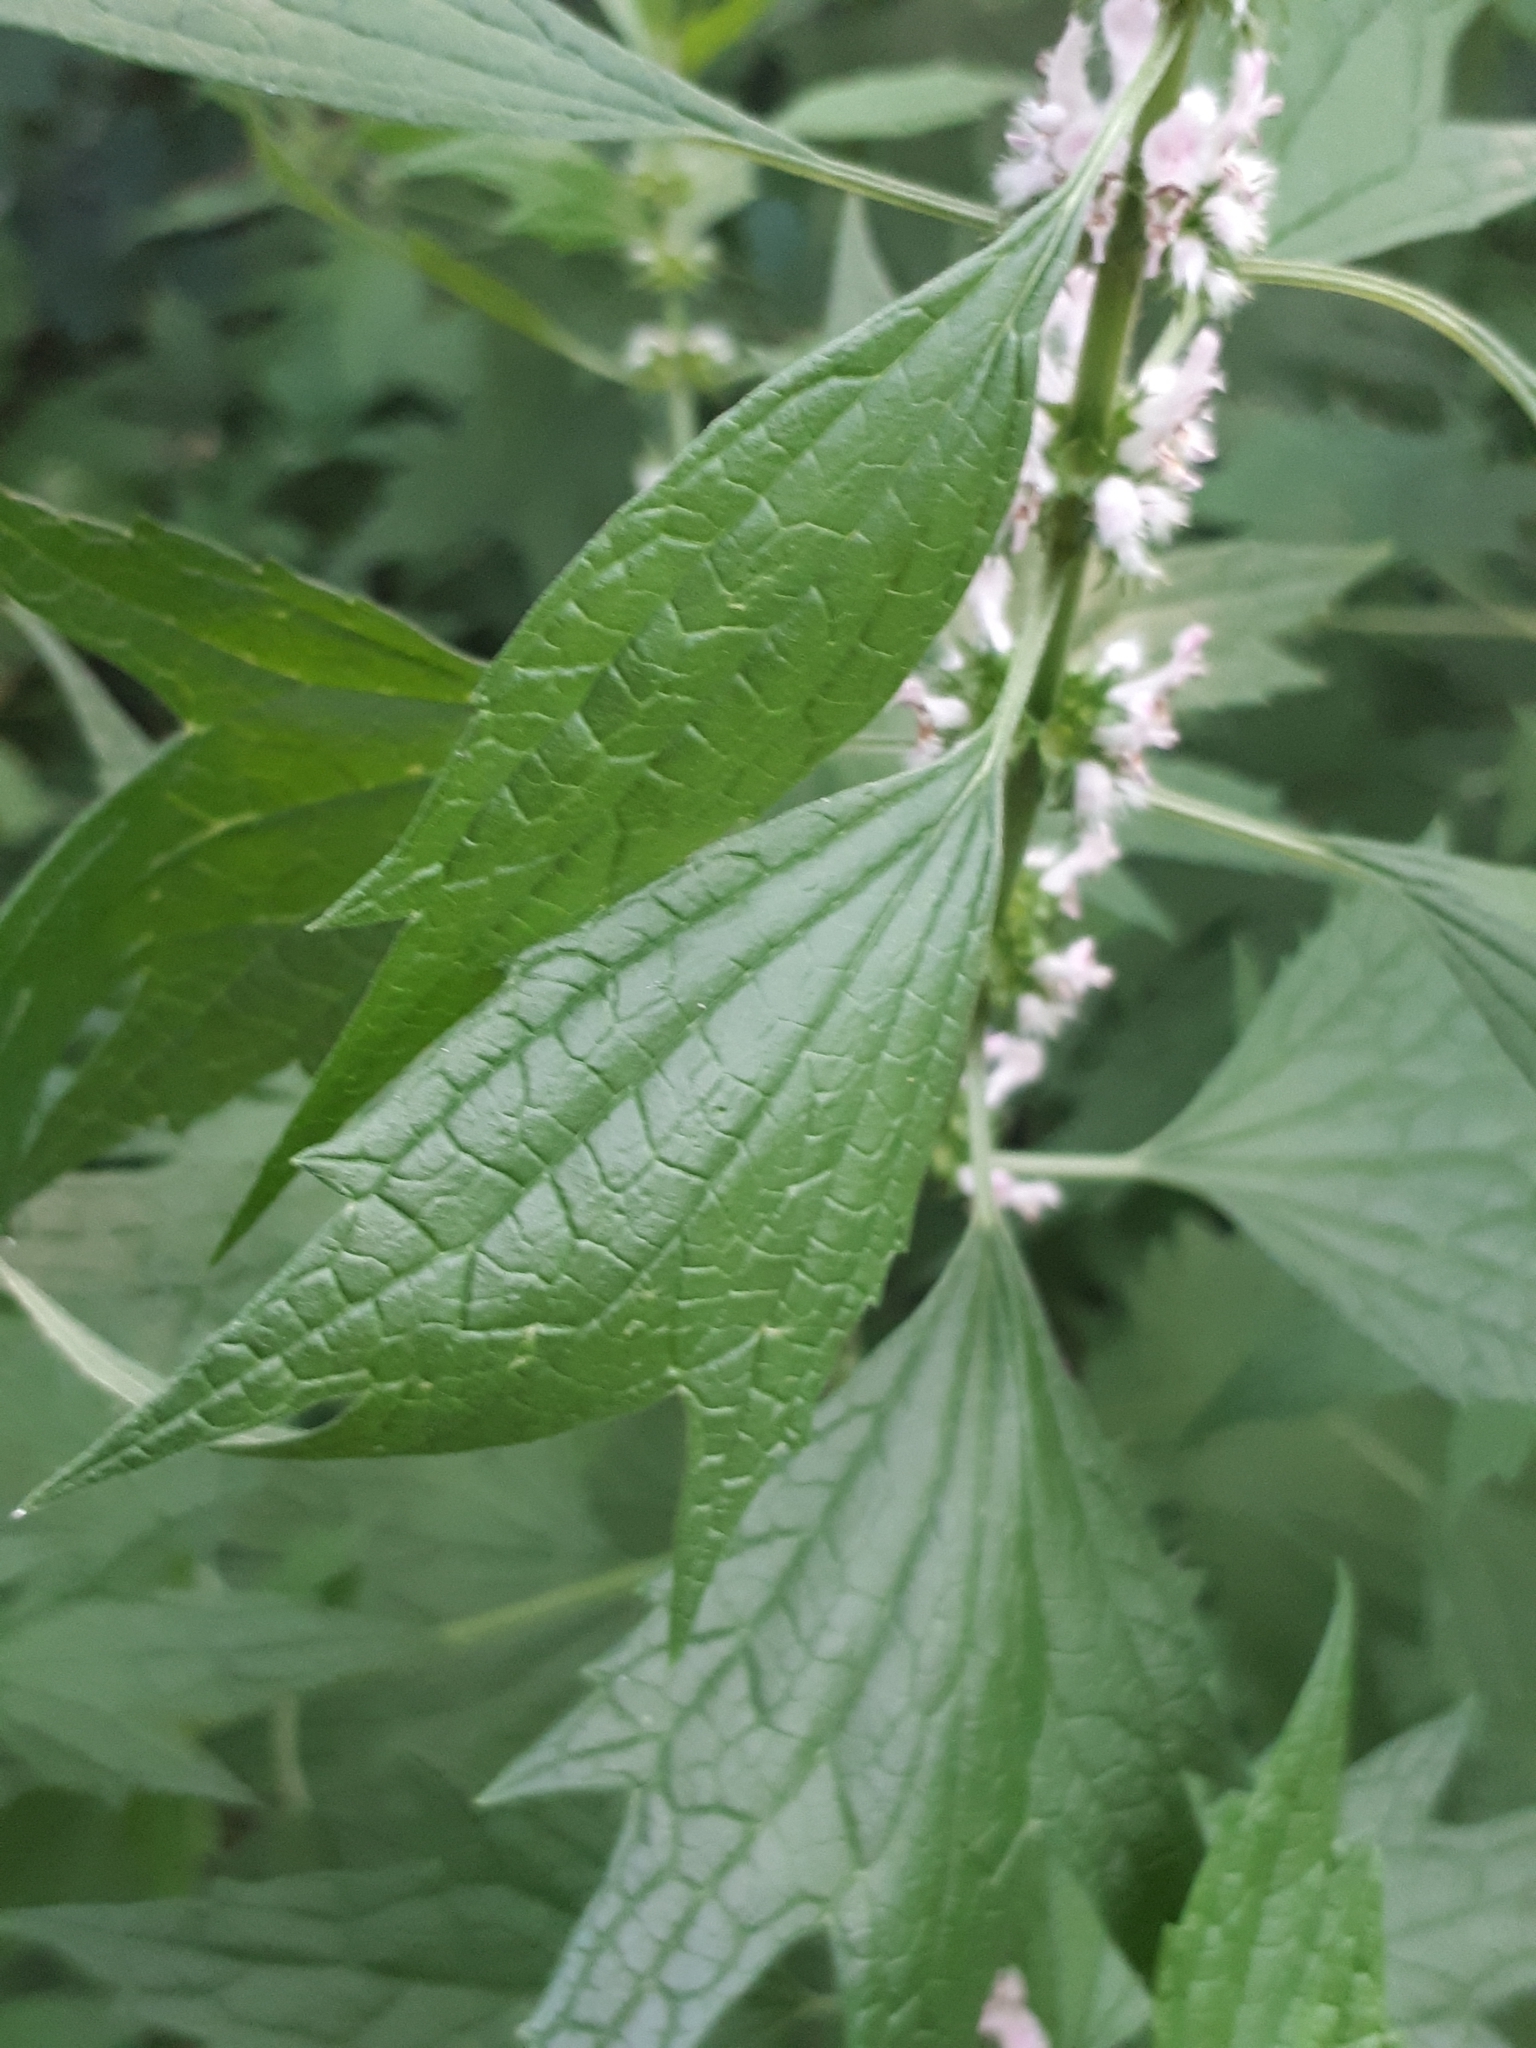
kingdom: Plantae
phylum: Tracheophyta
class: Magnoliopsida
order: Lamiales
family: Lamiaceae
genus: Leonurus
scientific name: Leonurus cardiaca
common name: Motherwort
